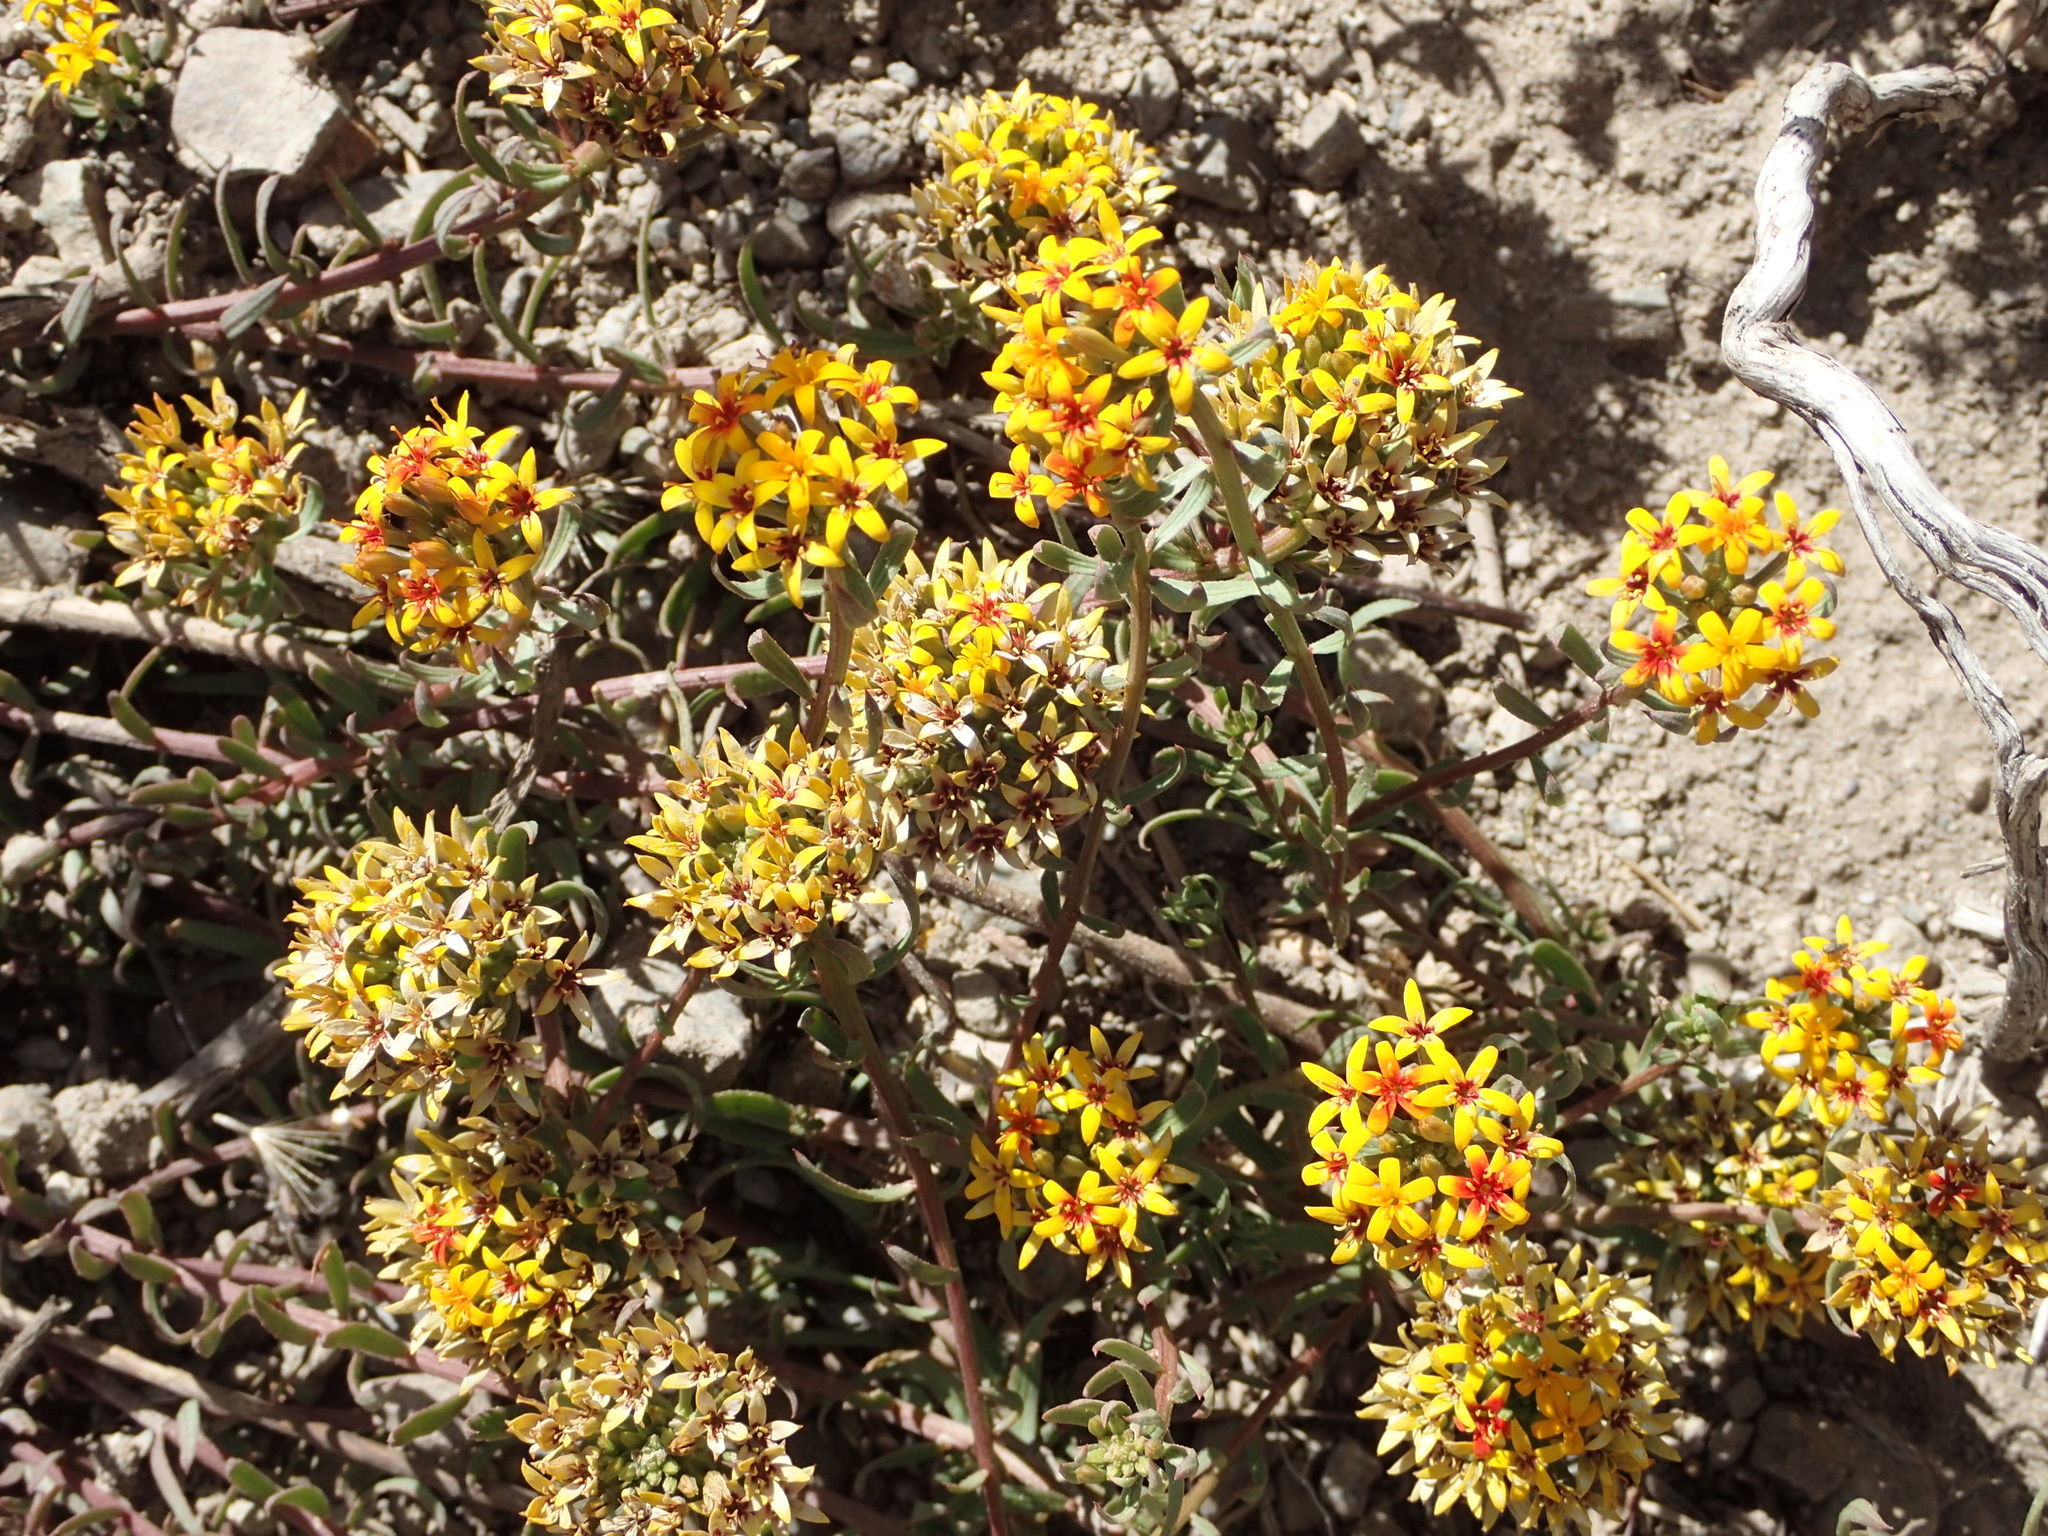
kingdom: Plantae
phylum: Tracheophyta
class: Magnoliopsida
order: Santalales
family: Schoepfiaceae
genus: Quinchamalium
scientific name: Quinchamalium chilense
